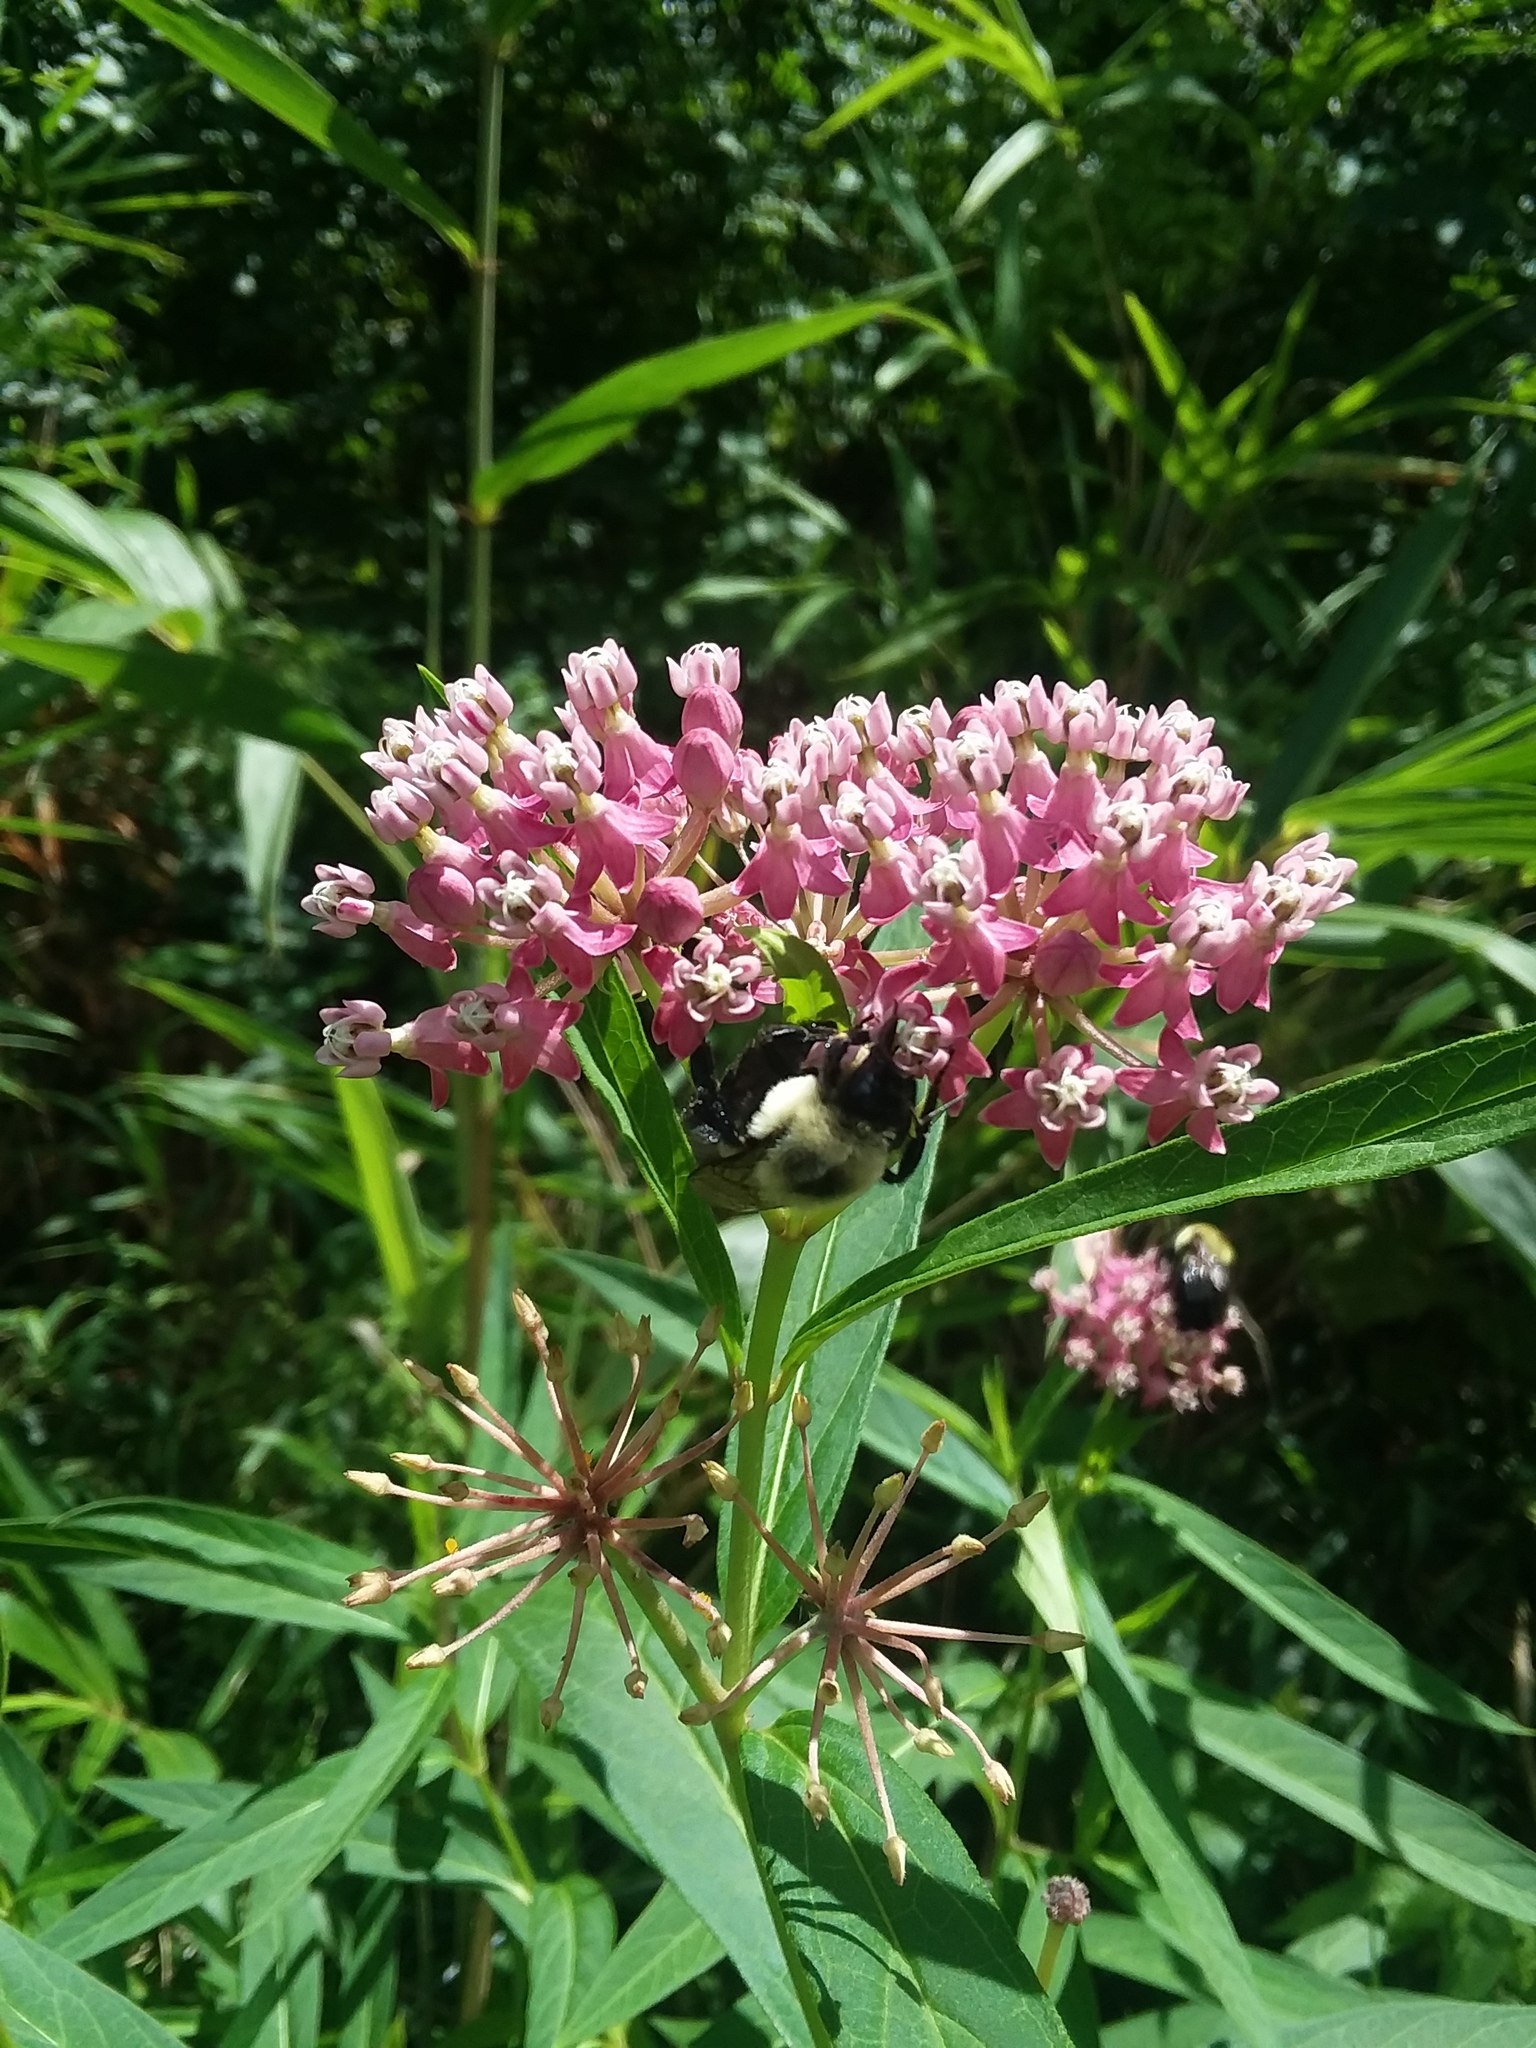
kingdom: Animalia
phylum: Arthropoda
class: Insecta
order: Hymenoptera
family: Apidae
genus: Bombus
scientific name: Bombus impatiens
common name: Common eastern bumble bee
